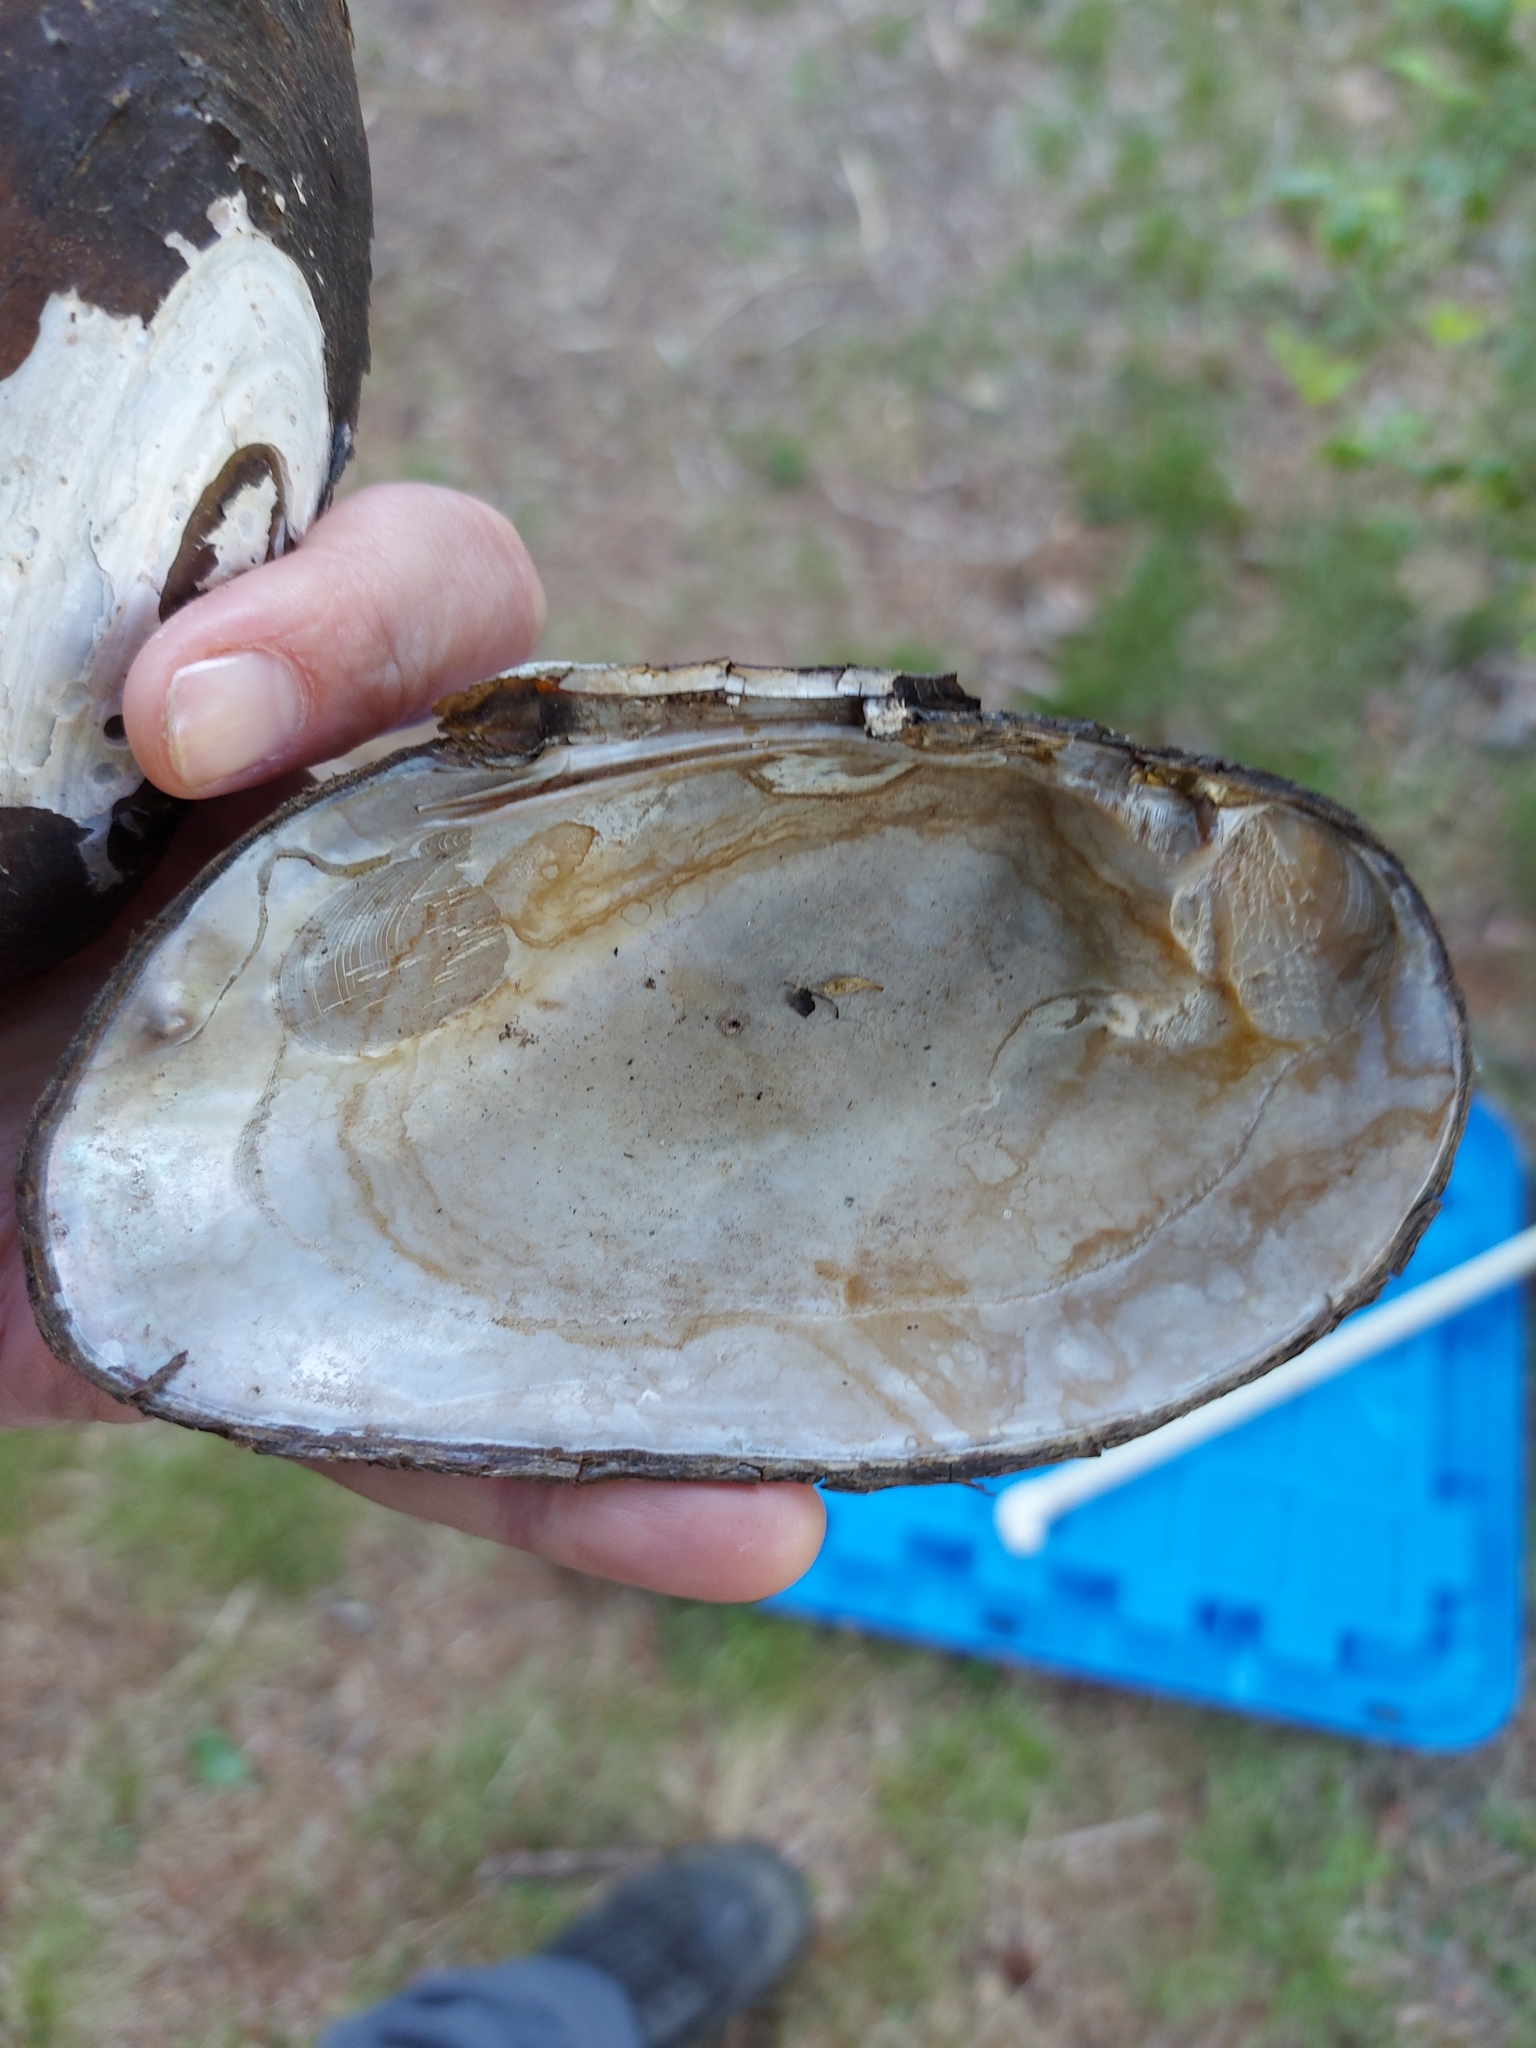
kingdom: Animalia
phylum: Mollusca
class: Bivalvia
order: Unionida
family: Unionidae
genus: Elliptio
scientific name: Elliptio complanata
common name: Eastern elliptio
